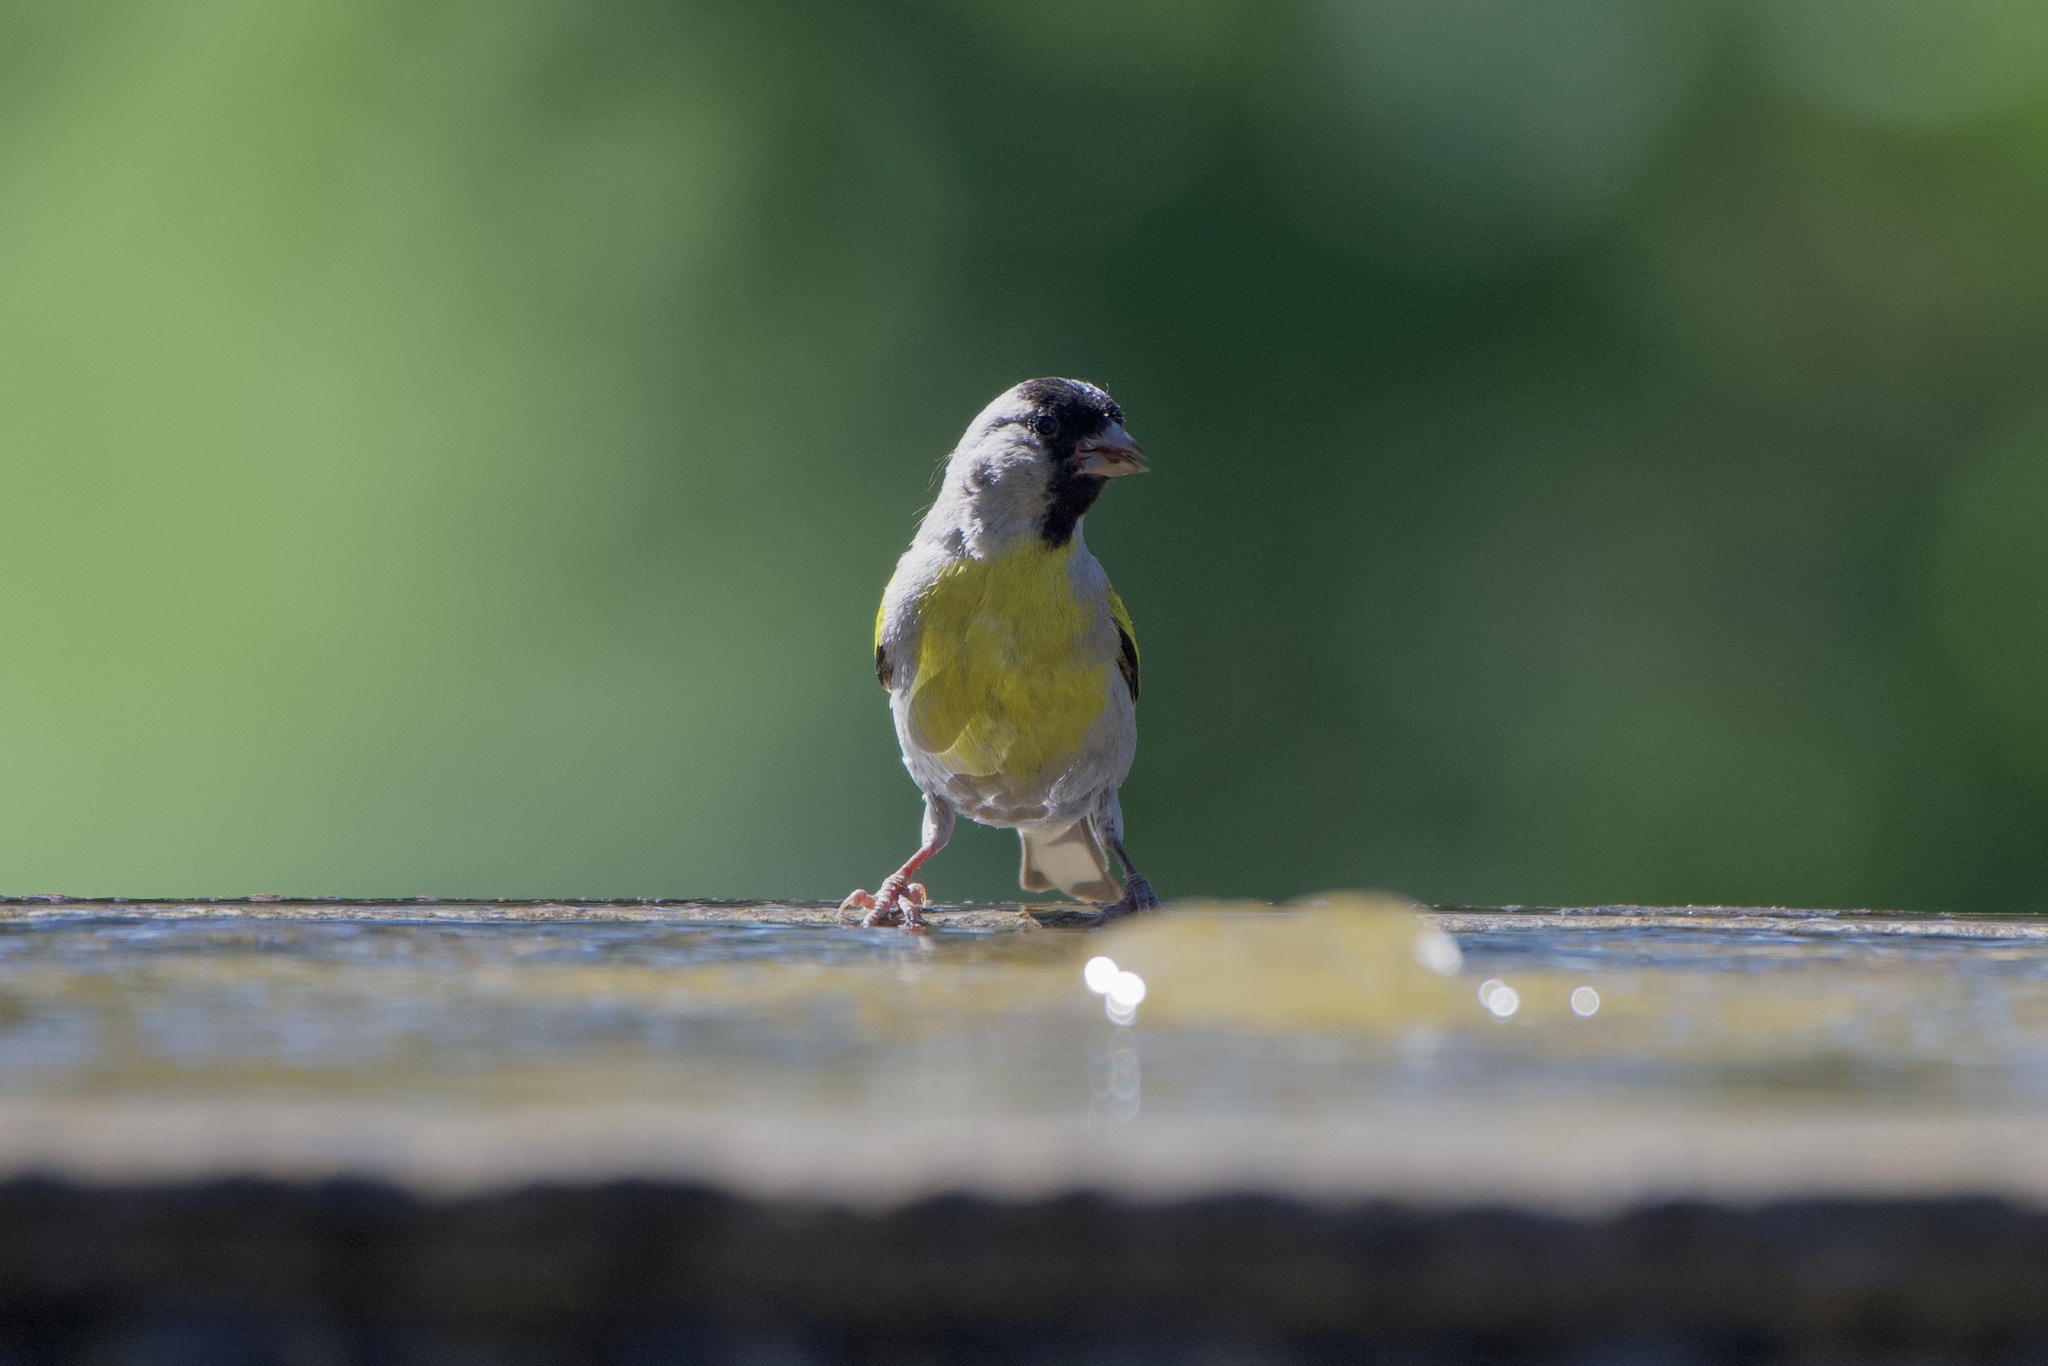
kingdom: Animalia
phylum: Chordata
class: Aves
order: Passeriformes
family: Fringillidae
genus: Spinus
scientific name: Spinus lawrencei
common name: Lawrence's goldfinch
